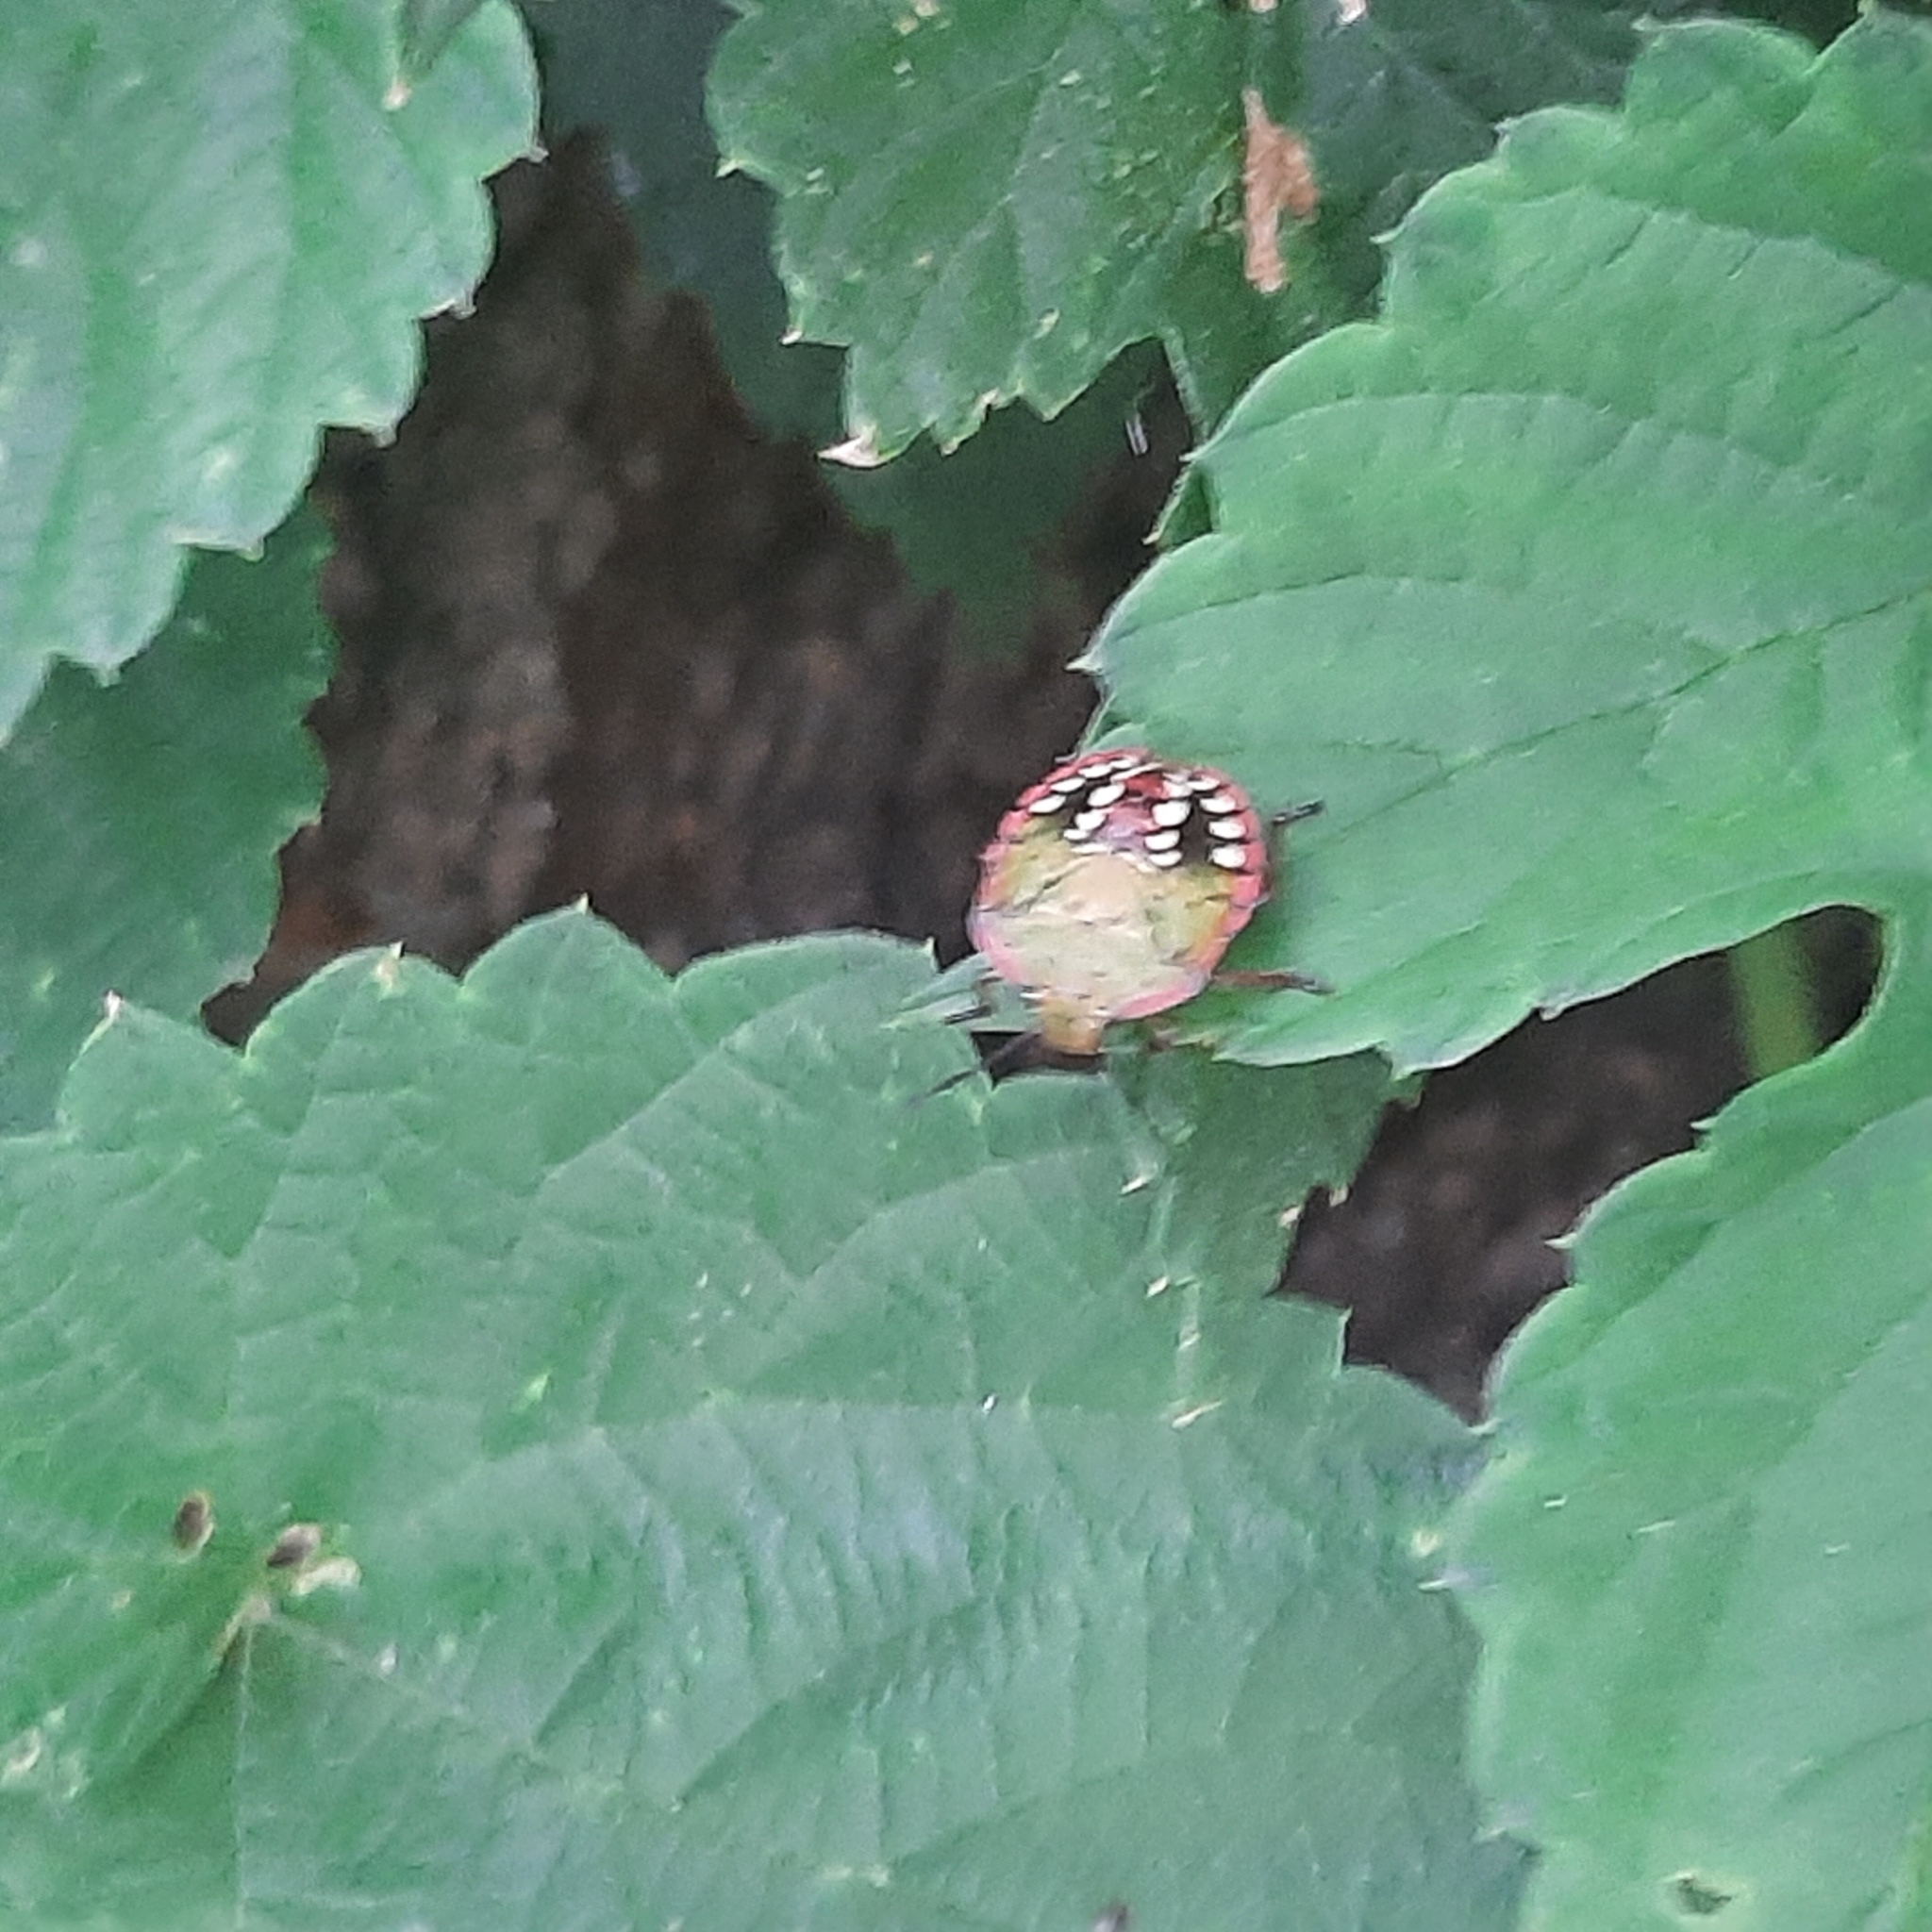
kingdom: Animalia
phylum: Arthropoda
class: Insecta
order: Hemiptera
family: Pentatomidae
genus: Nezara
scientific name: Nezara viridula
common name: Southern green stink bug
